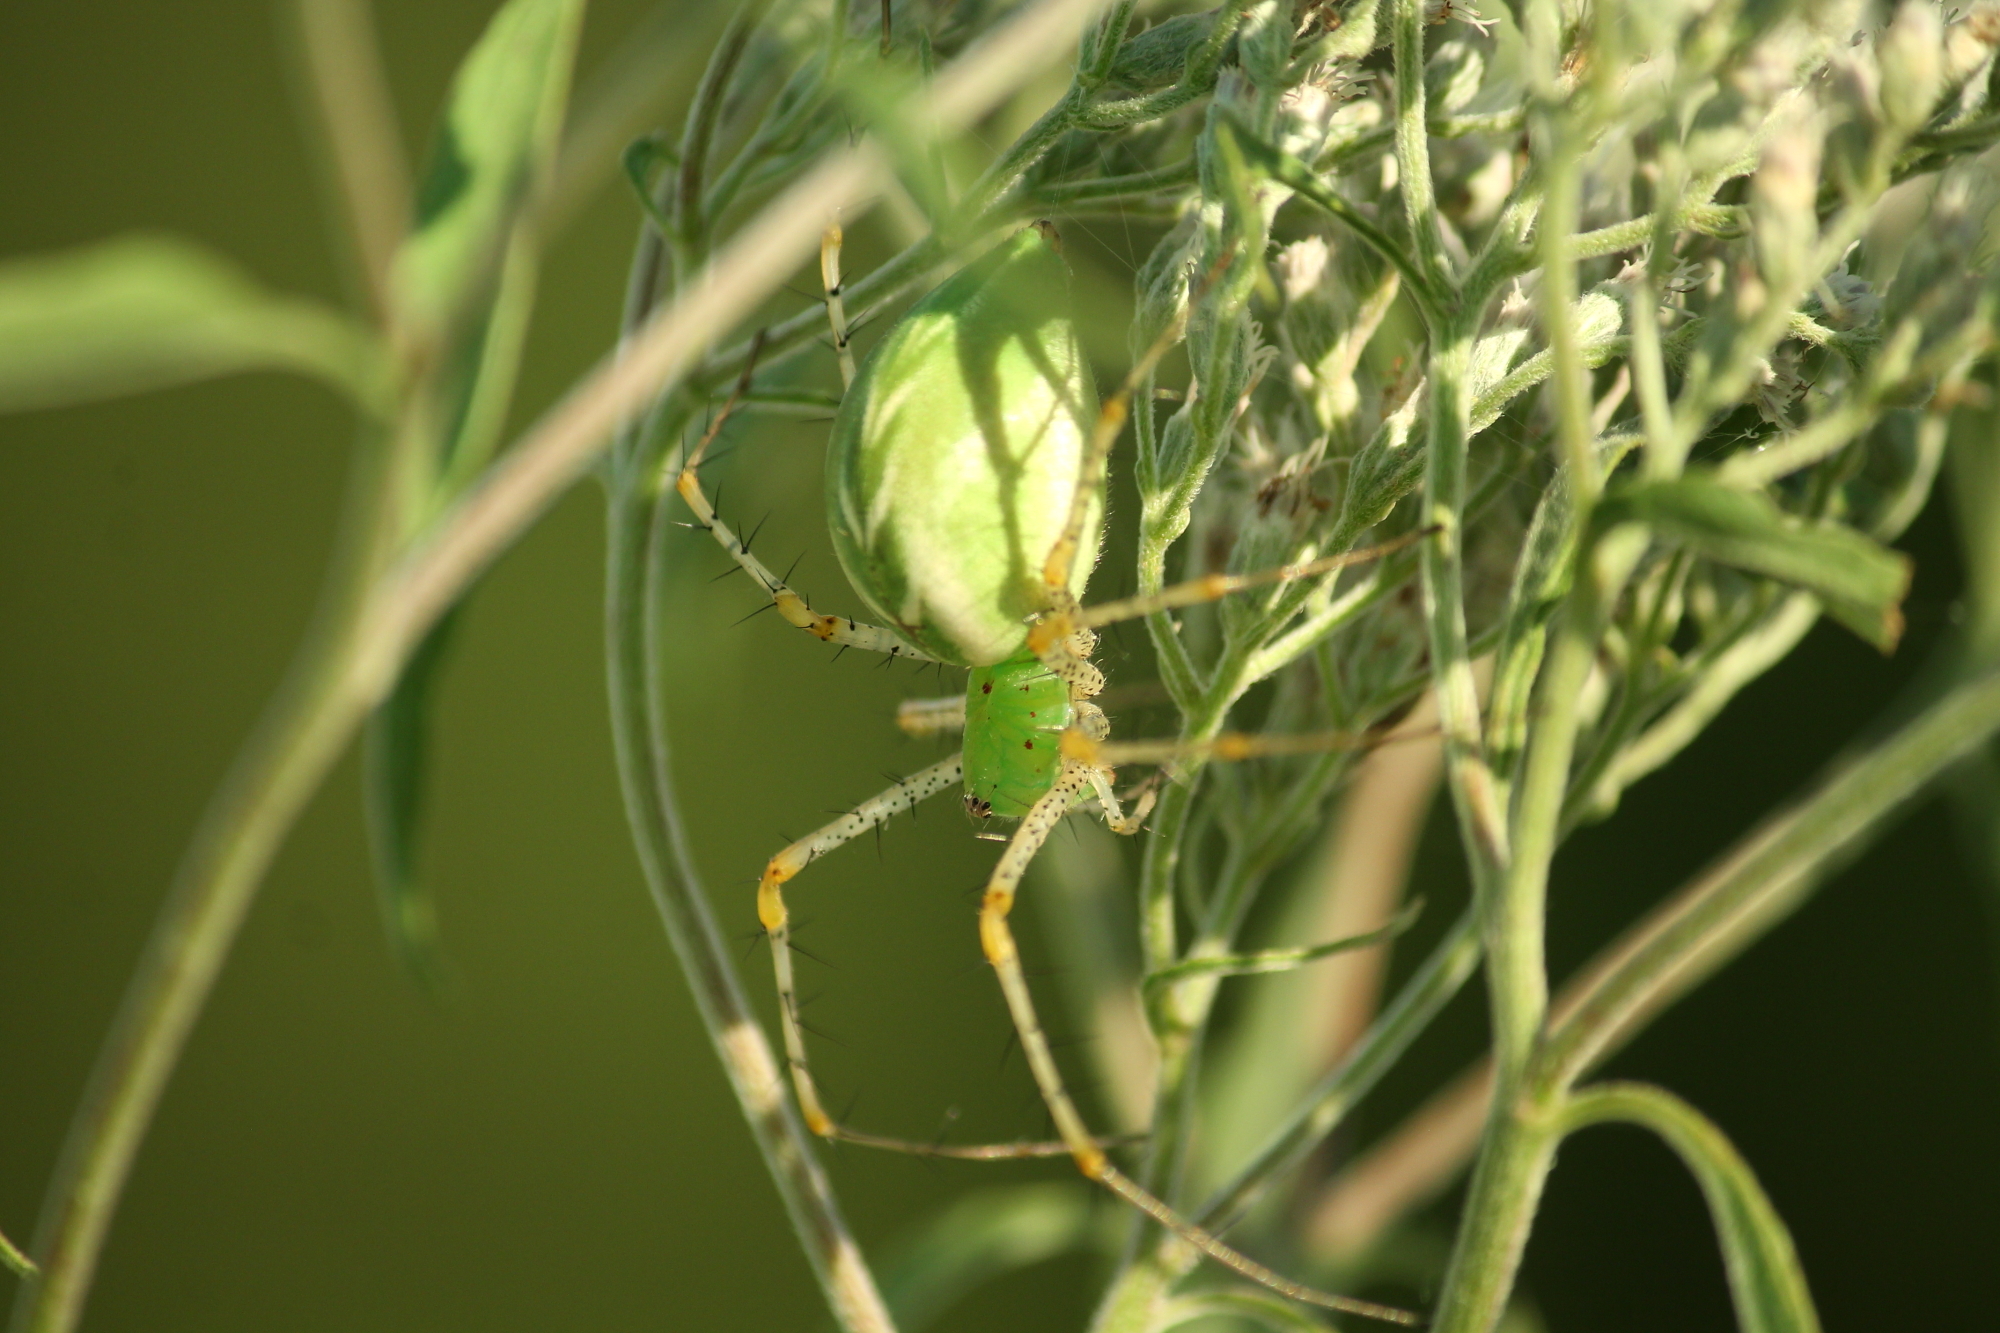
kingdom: Animalia
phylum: Arthropoda
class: Arachnida
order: Araneae
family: Oxyopidae
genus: Peucetia
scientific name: Peucetia viridans
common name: Lynx spiders
